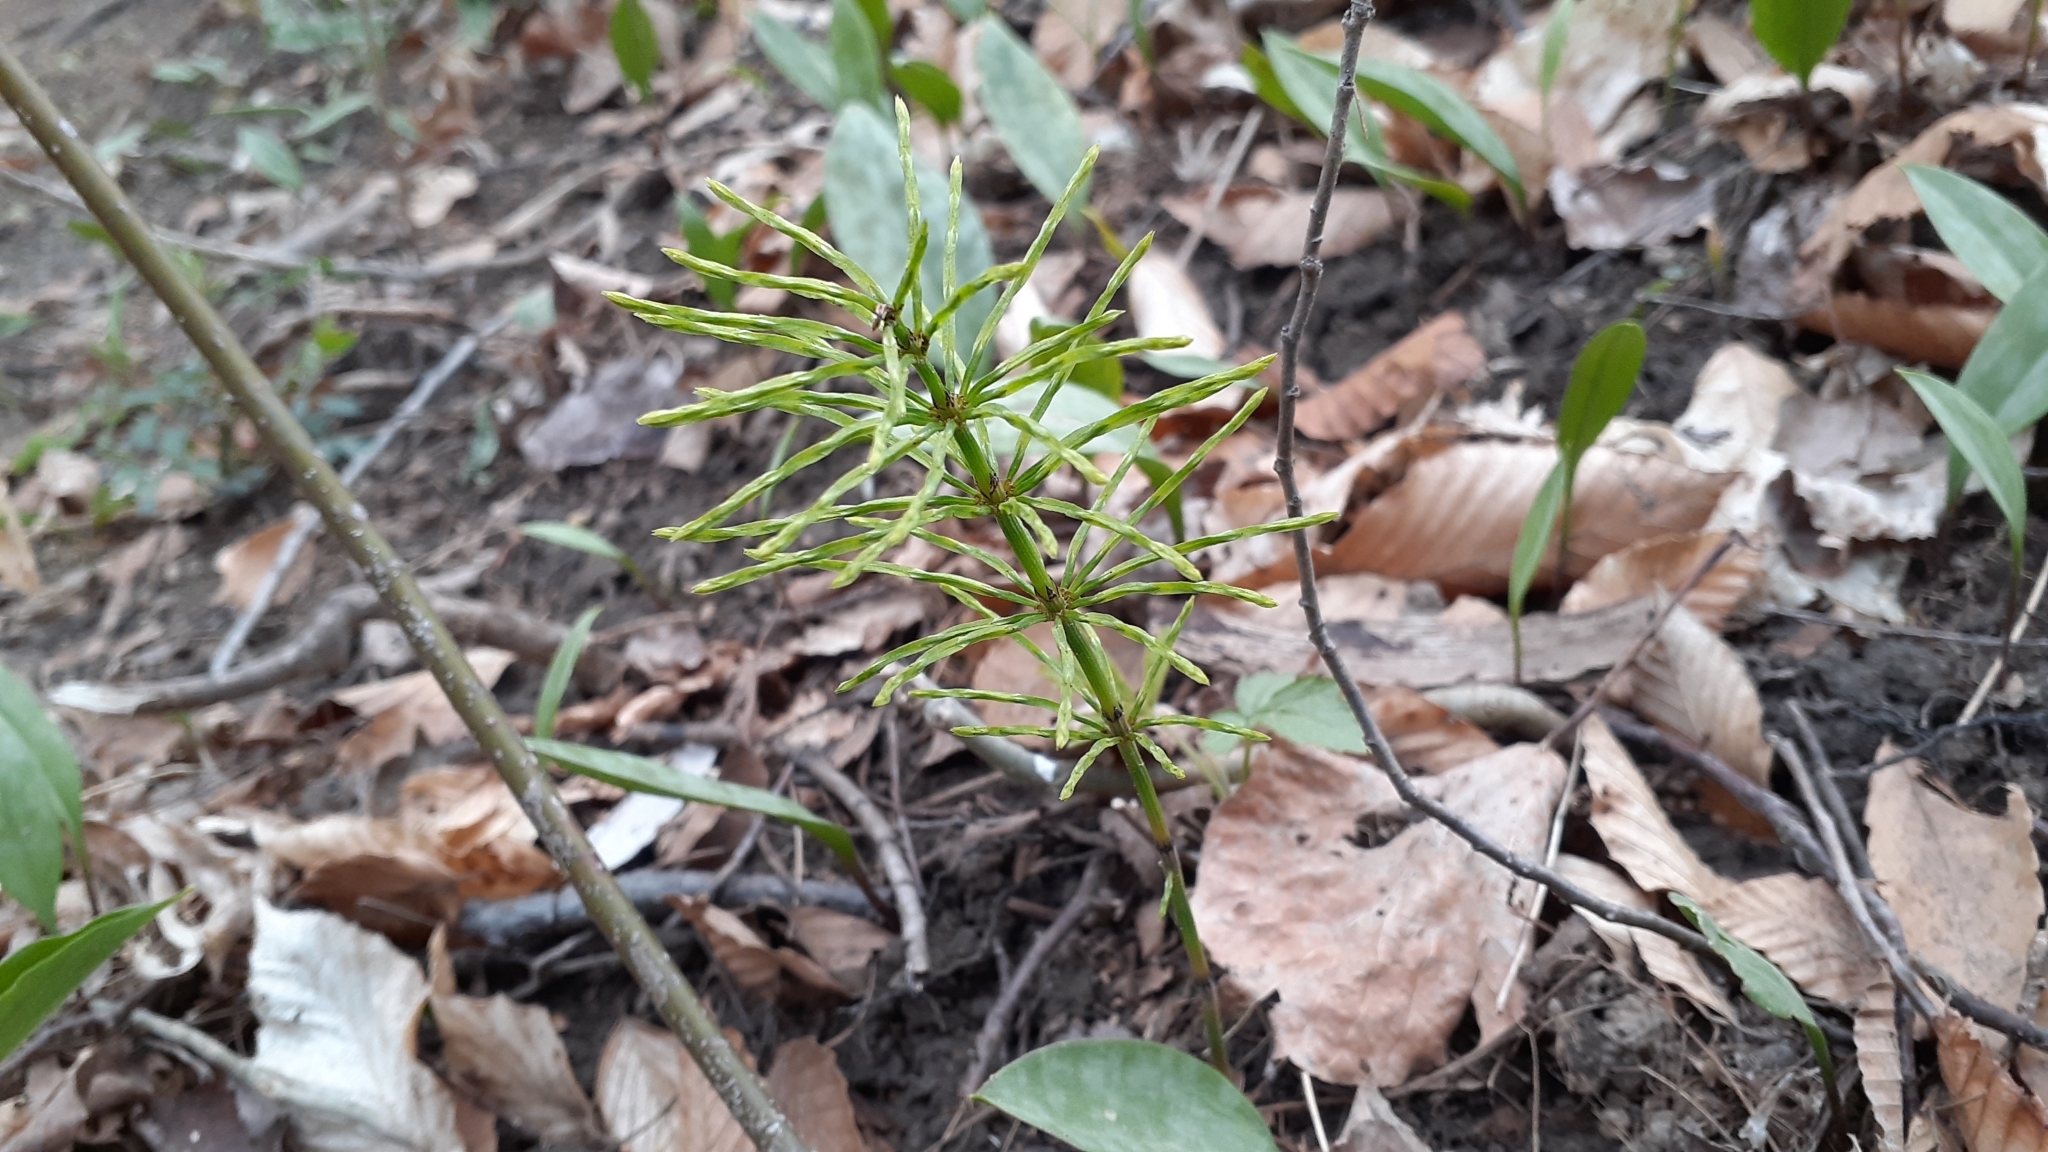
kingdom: Plantae
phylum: Tracheophyta
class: Polypodiopsida
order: Equisetales
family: Equisetaceae
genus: Equisetum
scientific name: Equisetum arvense
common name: Field horsetail
